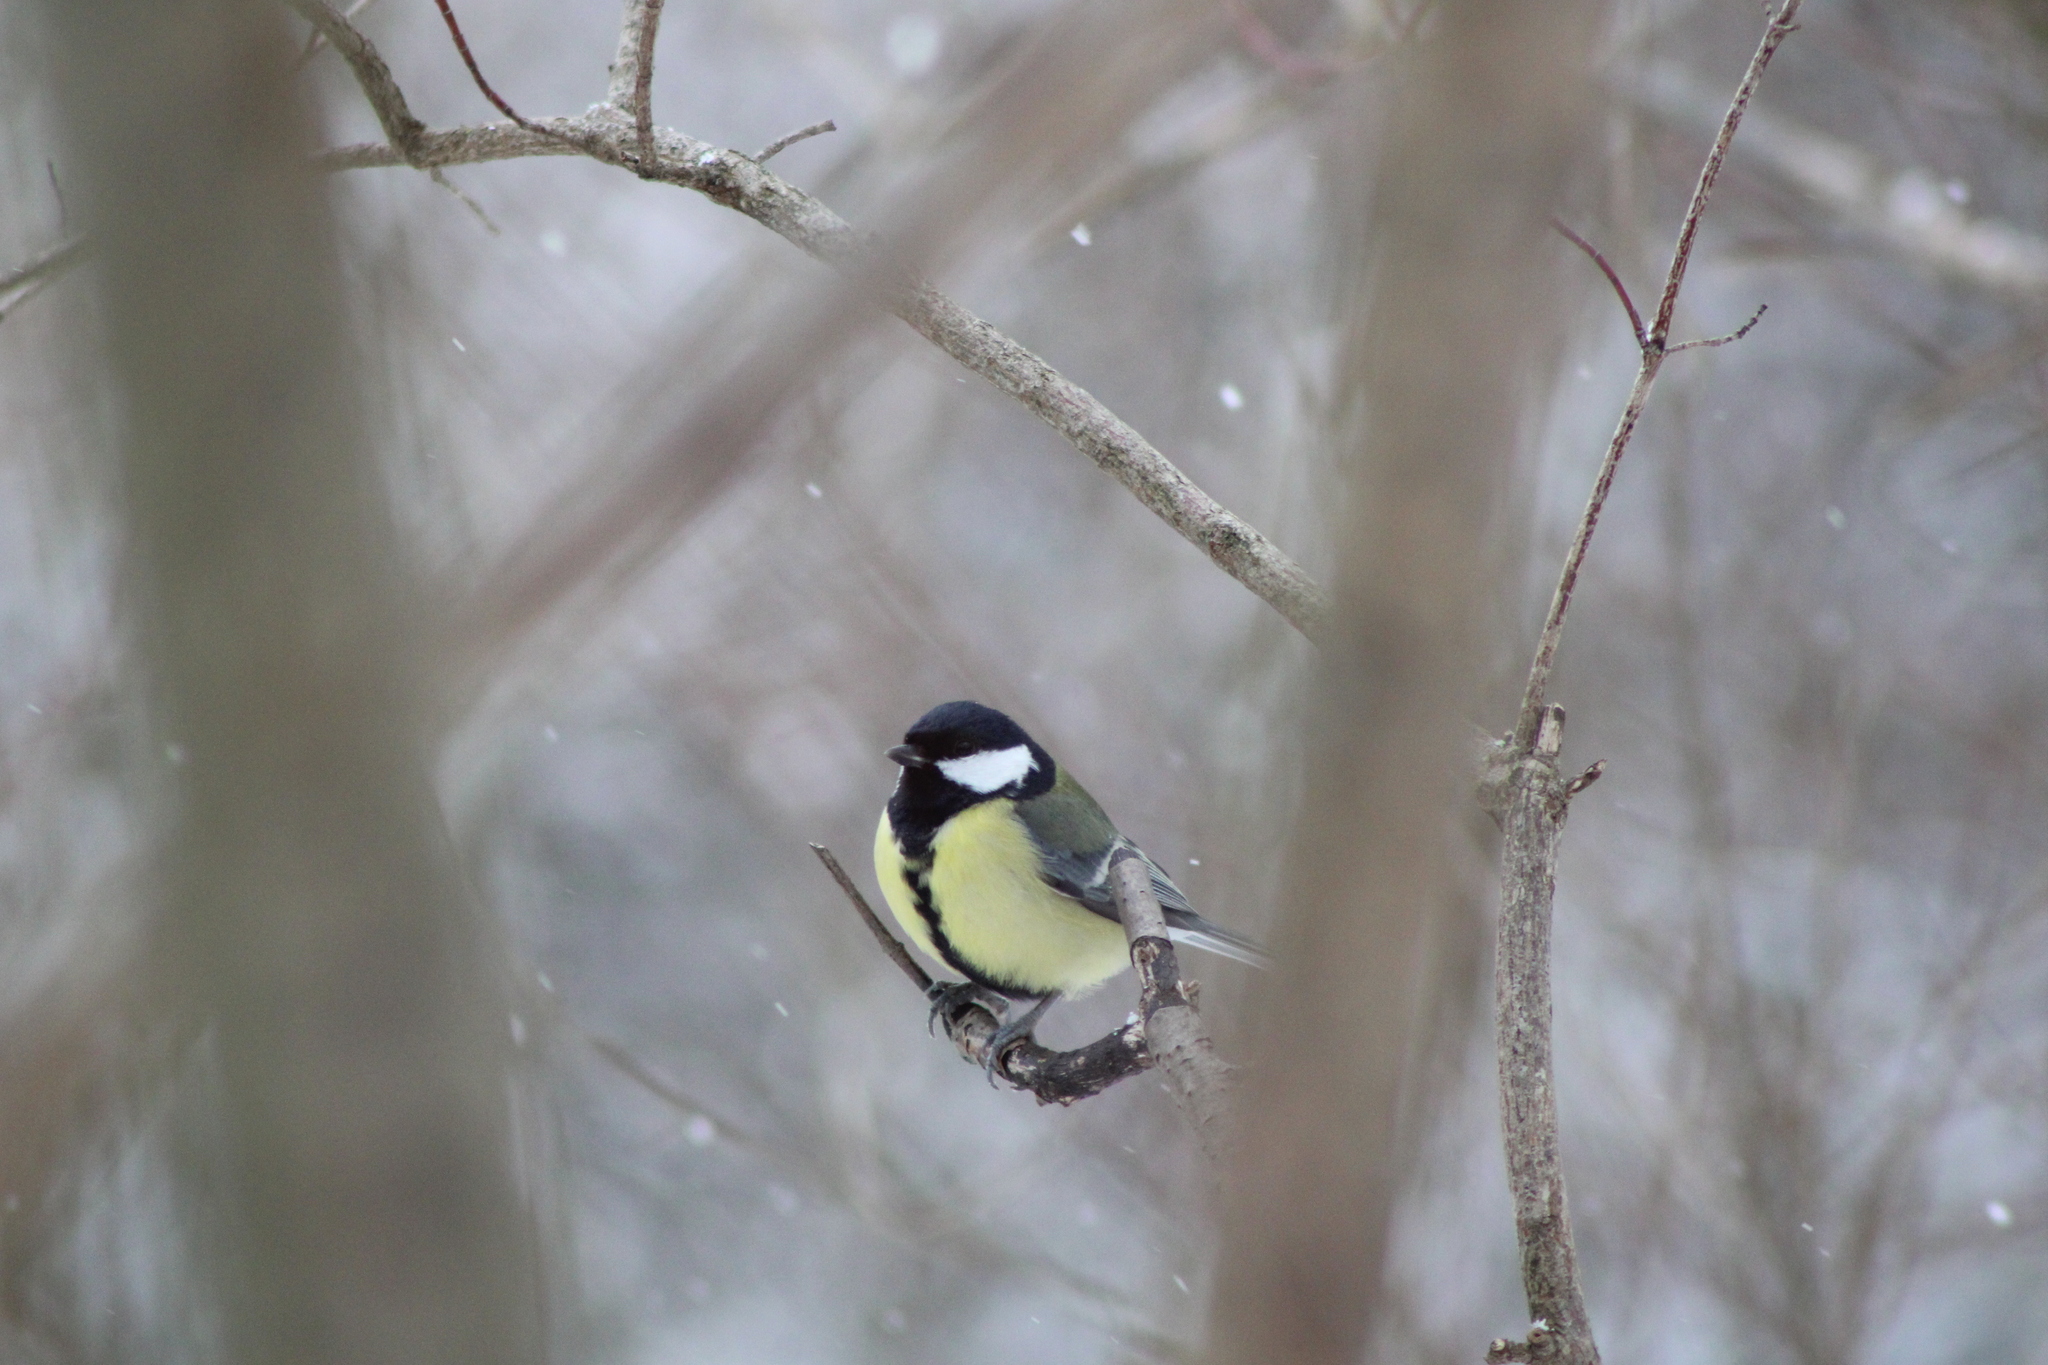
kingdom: Animalia
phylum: Chordata
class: Aves
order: Passeriformes
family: Paridae
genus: Parus
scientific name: Parus major
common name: Great tit
